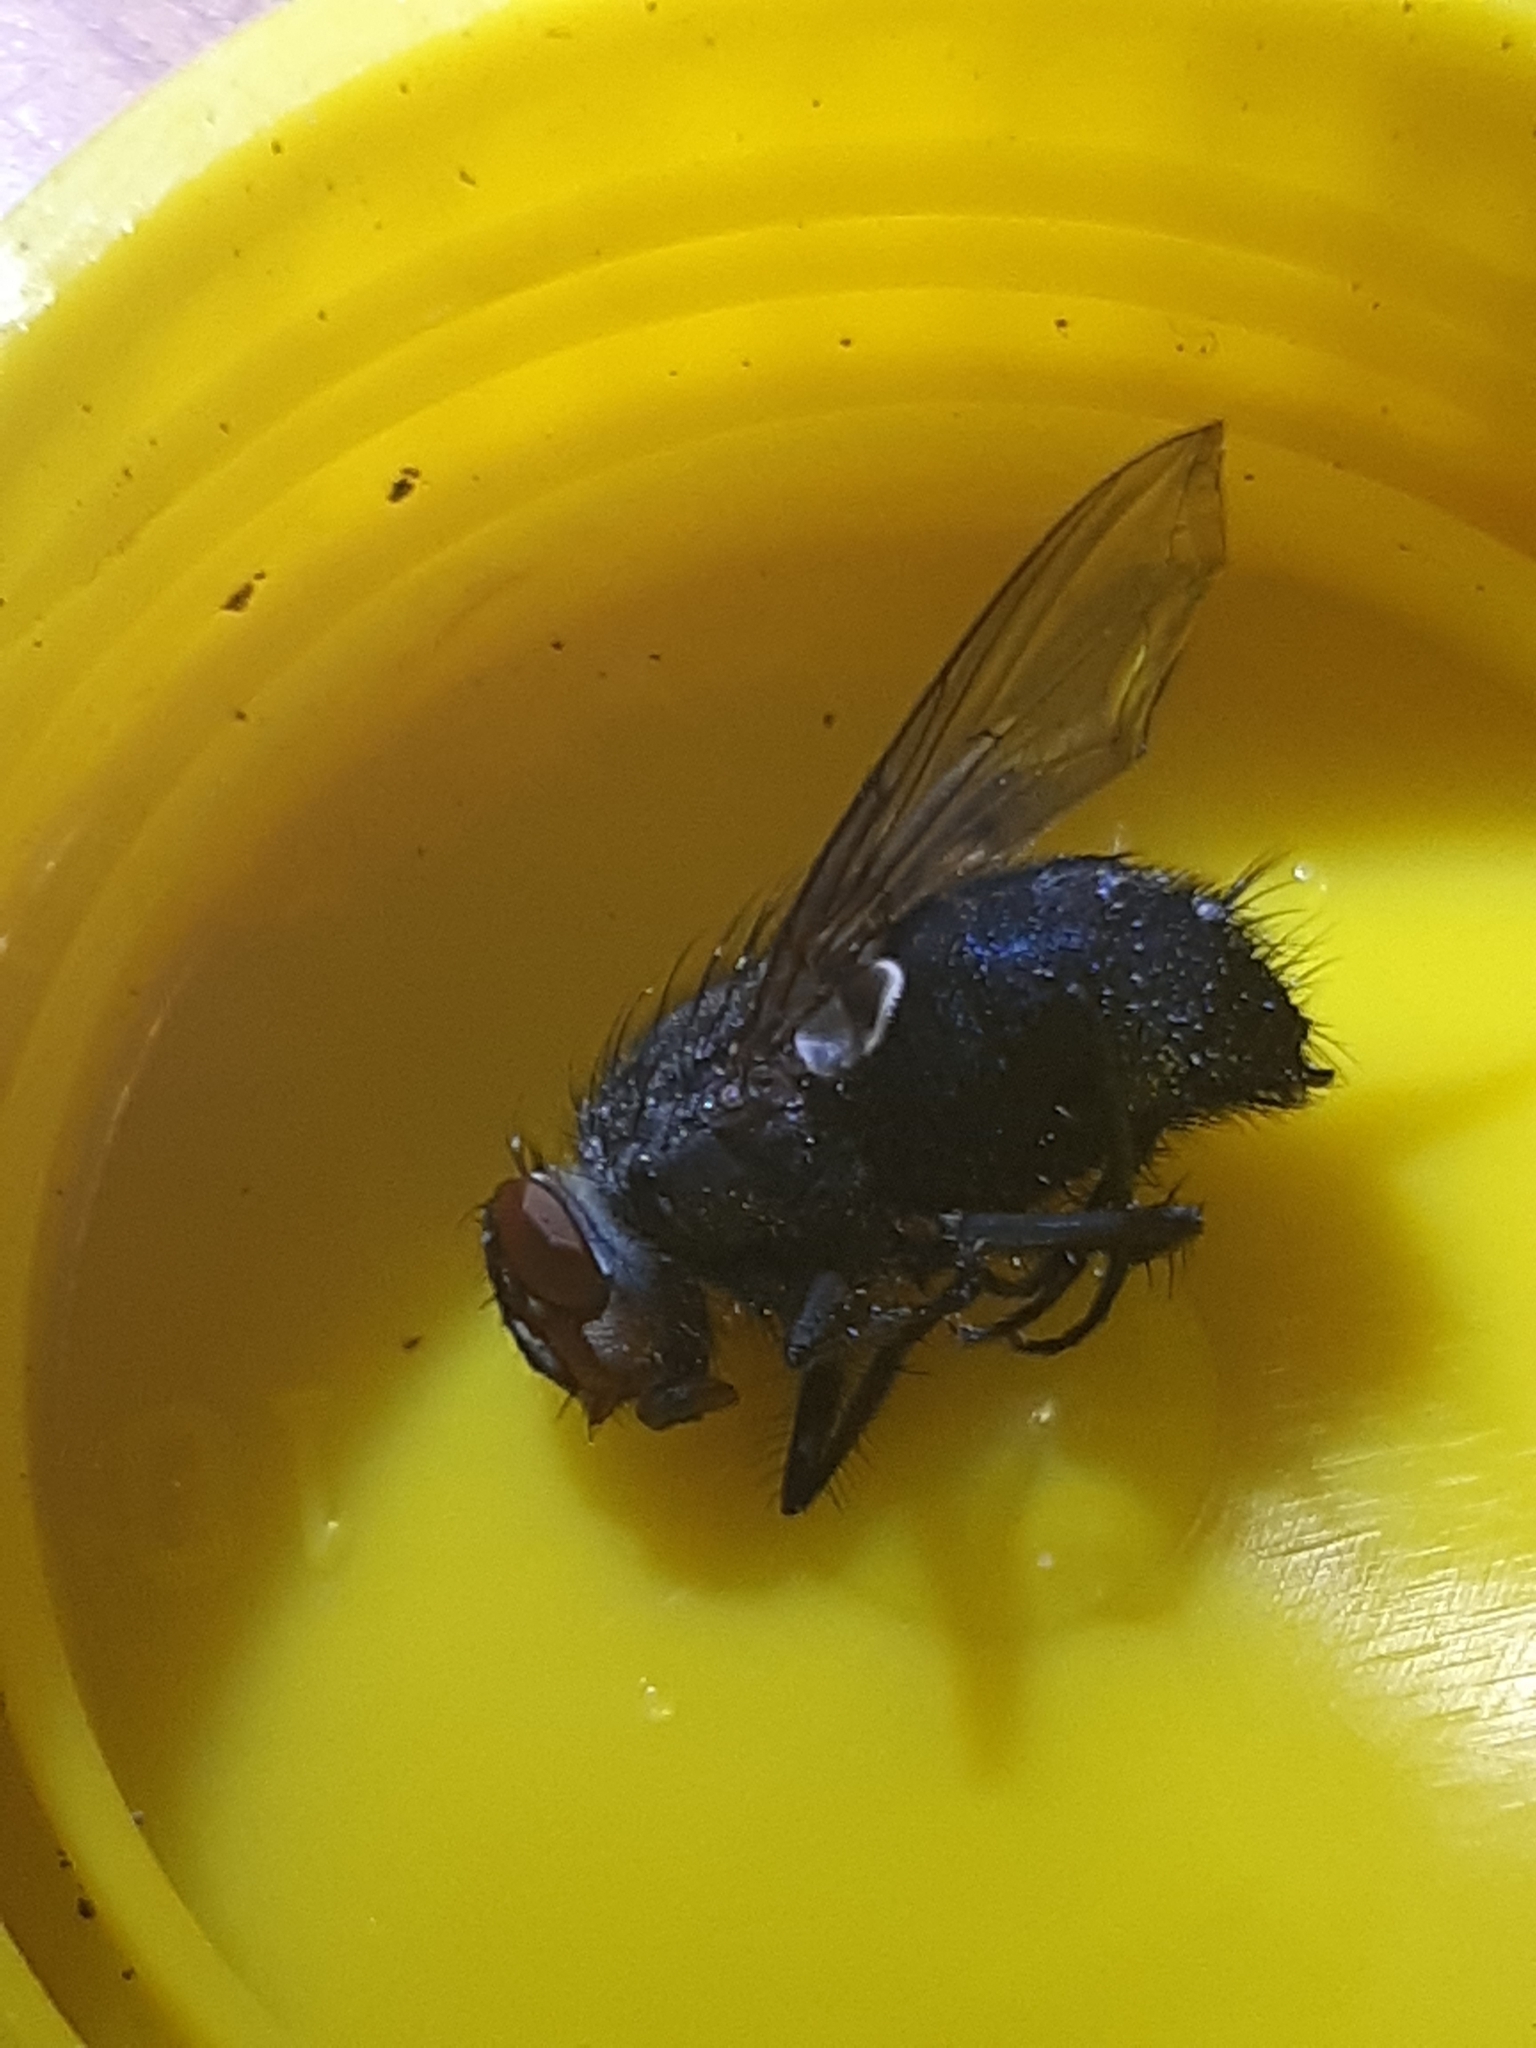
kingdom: Animalia
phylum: Arthropoda
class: Insecta
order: Diptera
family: Calliphoridae
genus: Calliphora
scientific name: Calliphora vicina
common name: Common blow flie
